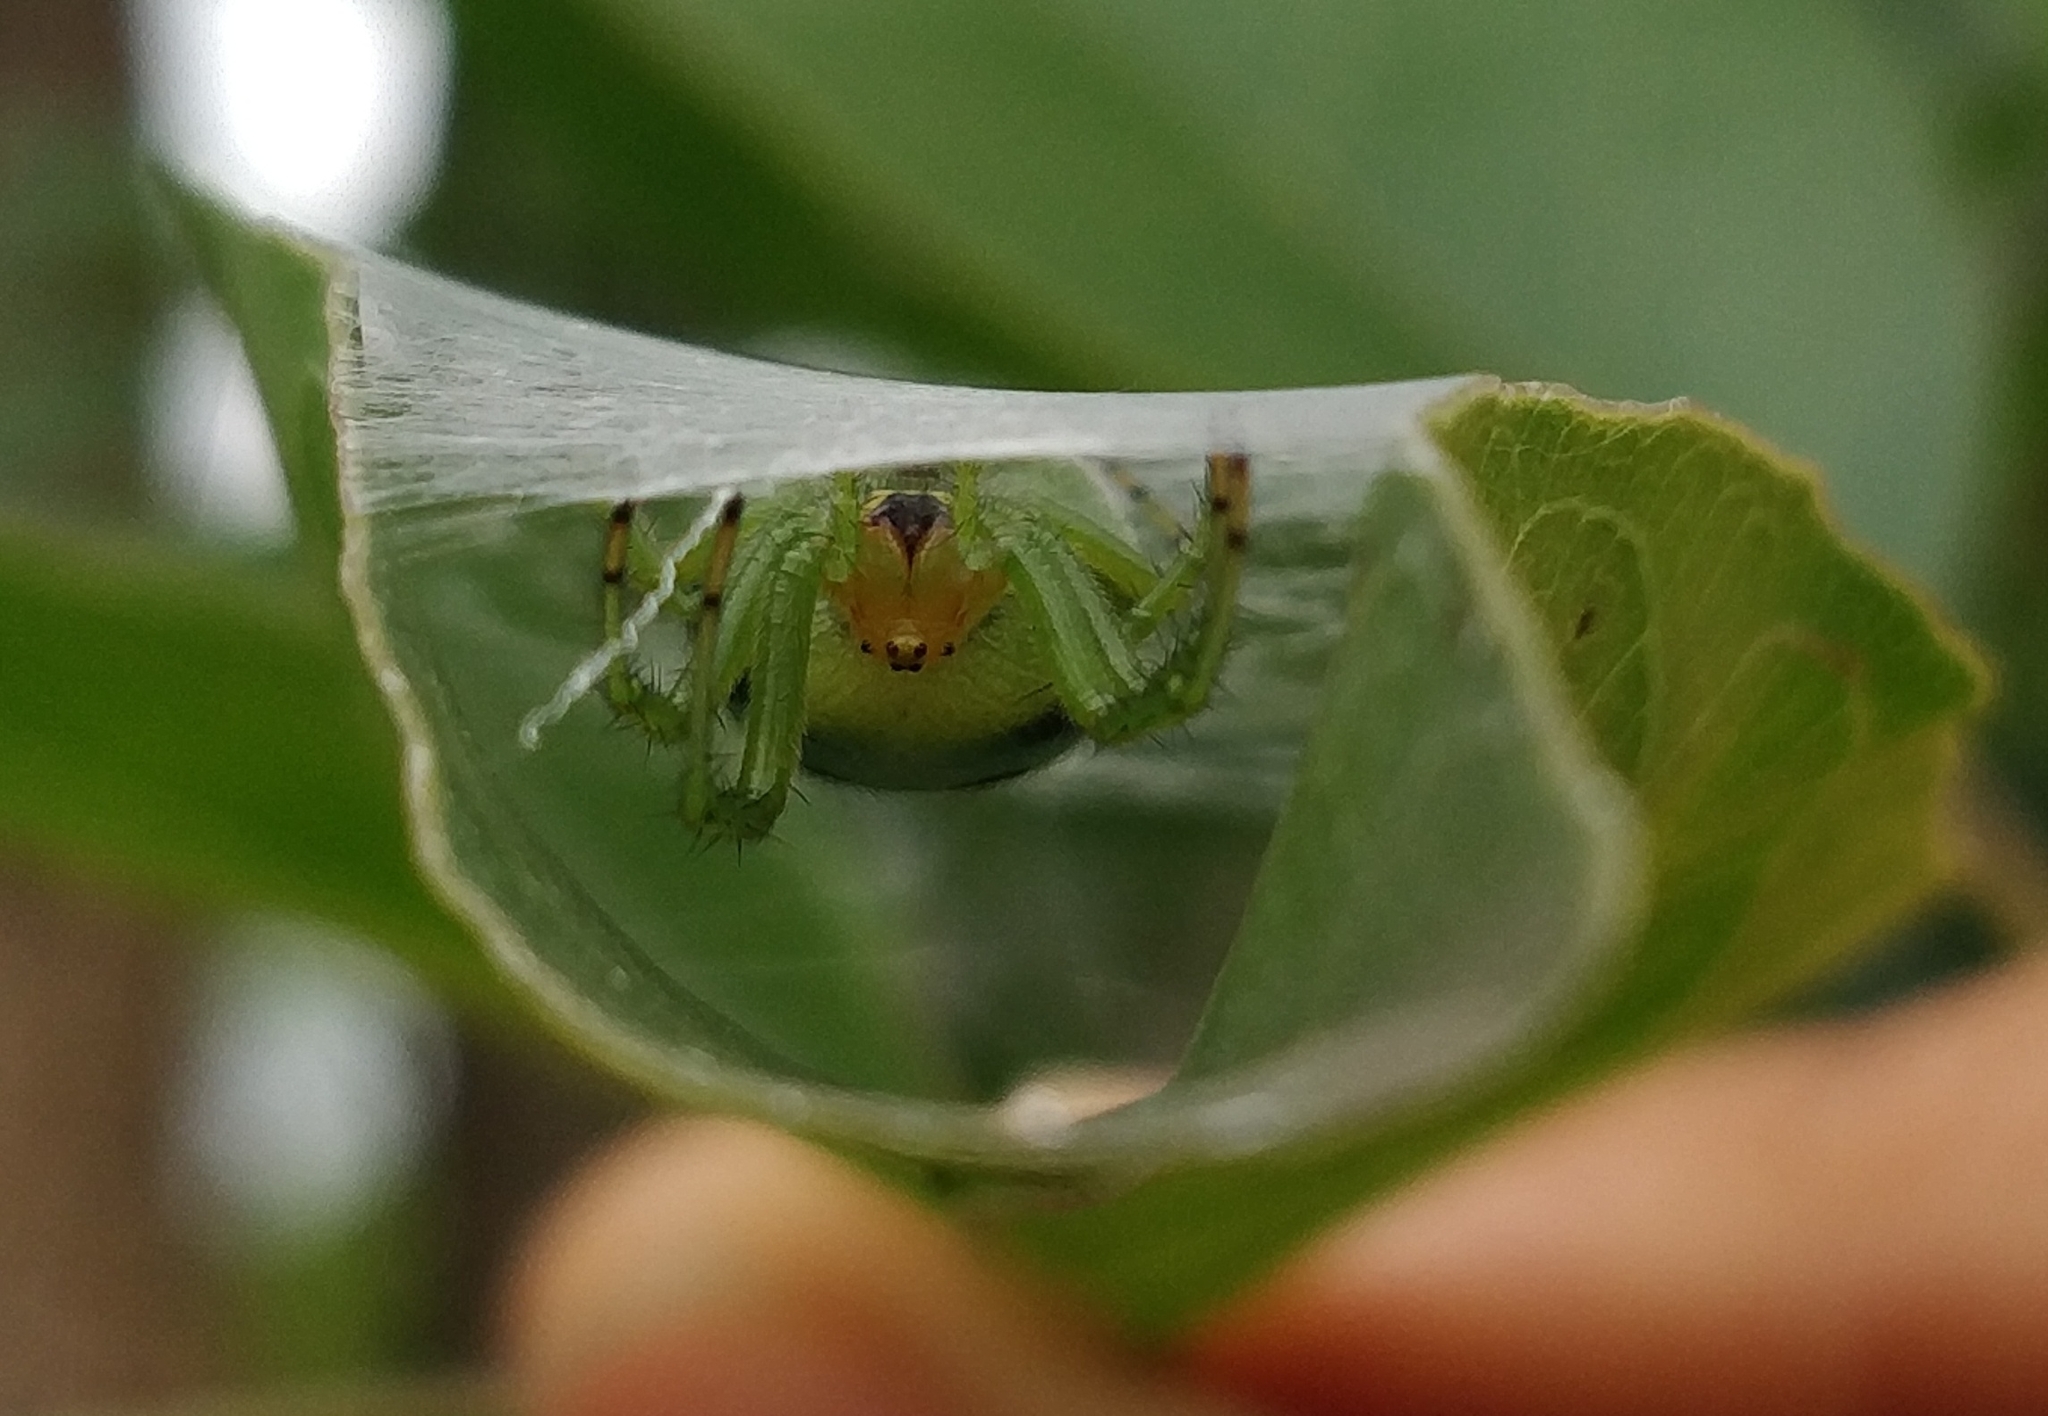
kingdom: Animalia
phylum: Arthropoda
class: Arachnida
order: Araneae
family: Araneidae
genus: Bijoaraneus
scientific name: Bijoaraneus mitificus
